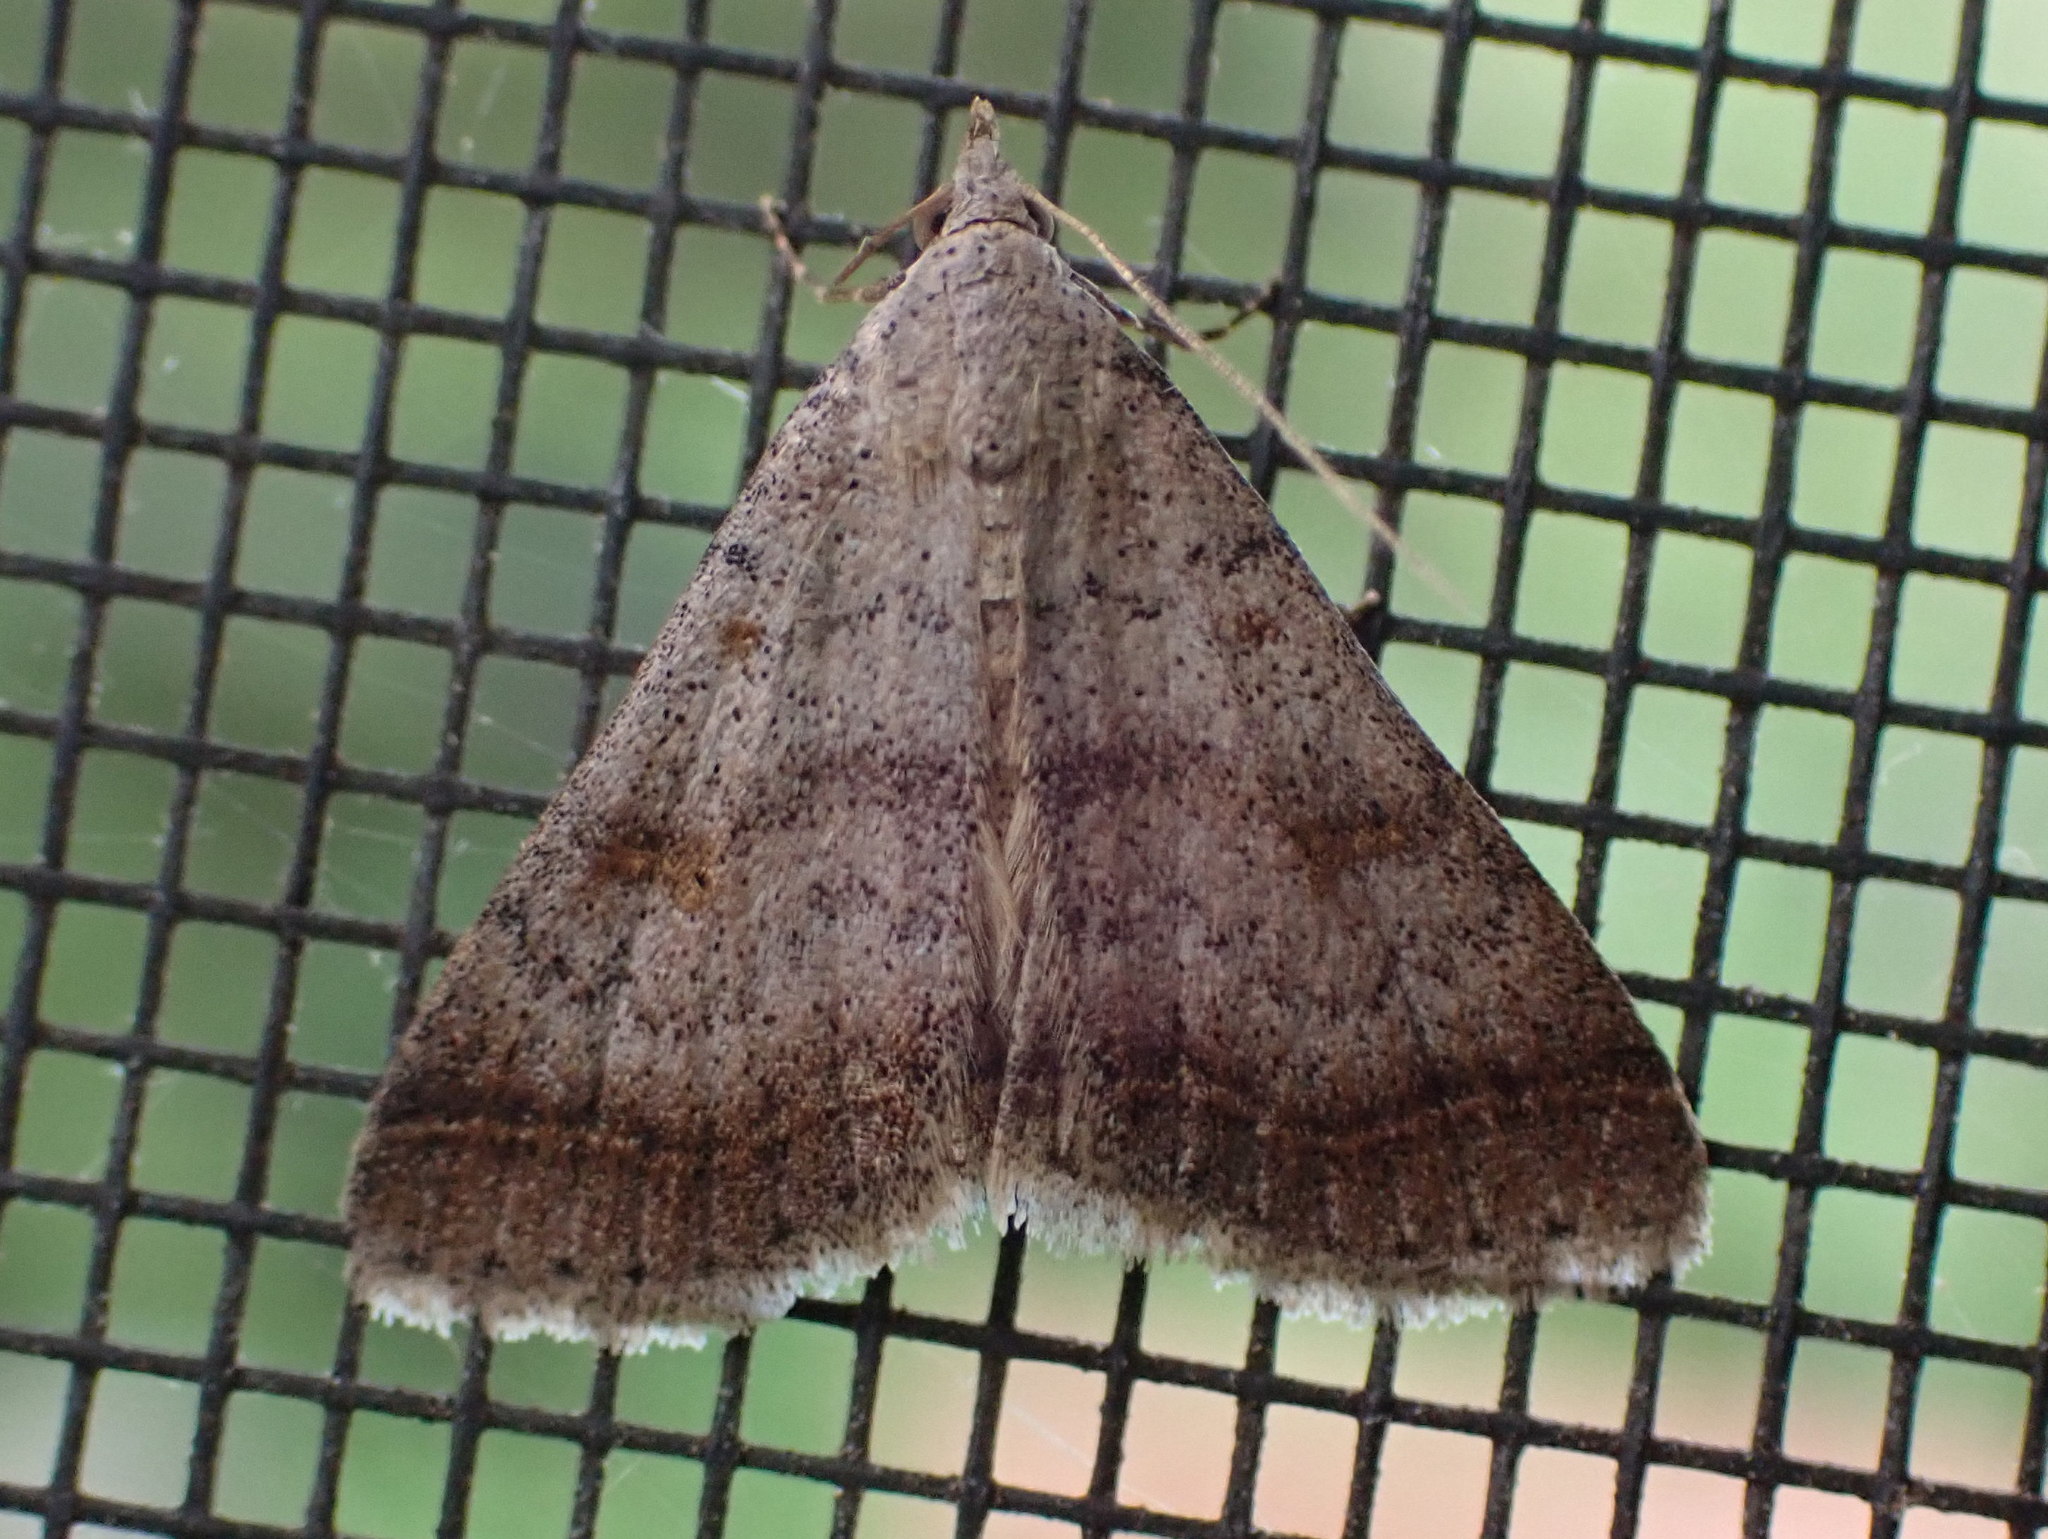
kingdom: Animalia
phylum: Arthropoda
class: Insecta
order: Lepidoptera
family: Erebidae
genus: Bleptina
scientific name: Bleptina caradrinalis
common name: Bent-winged owlet
